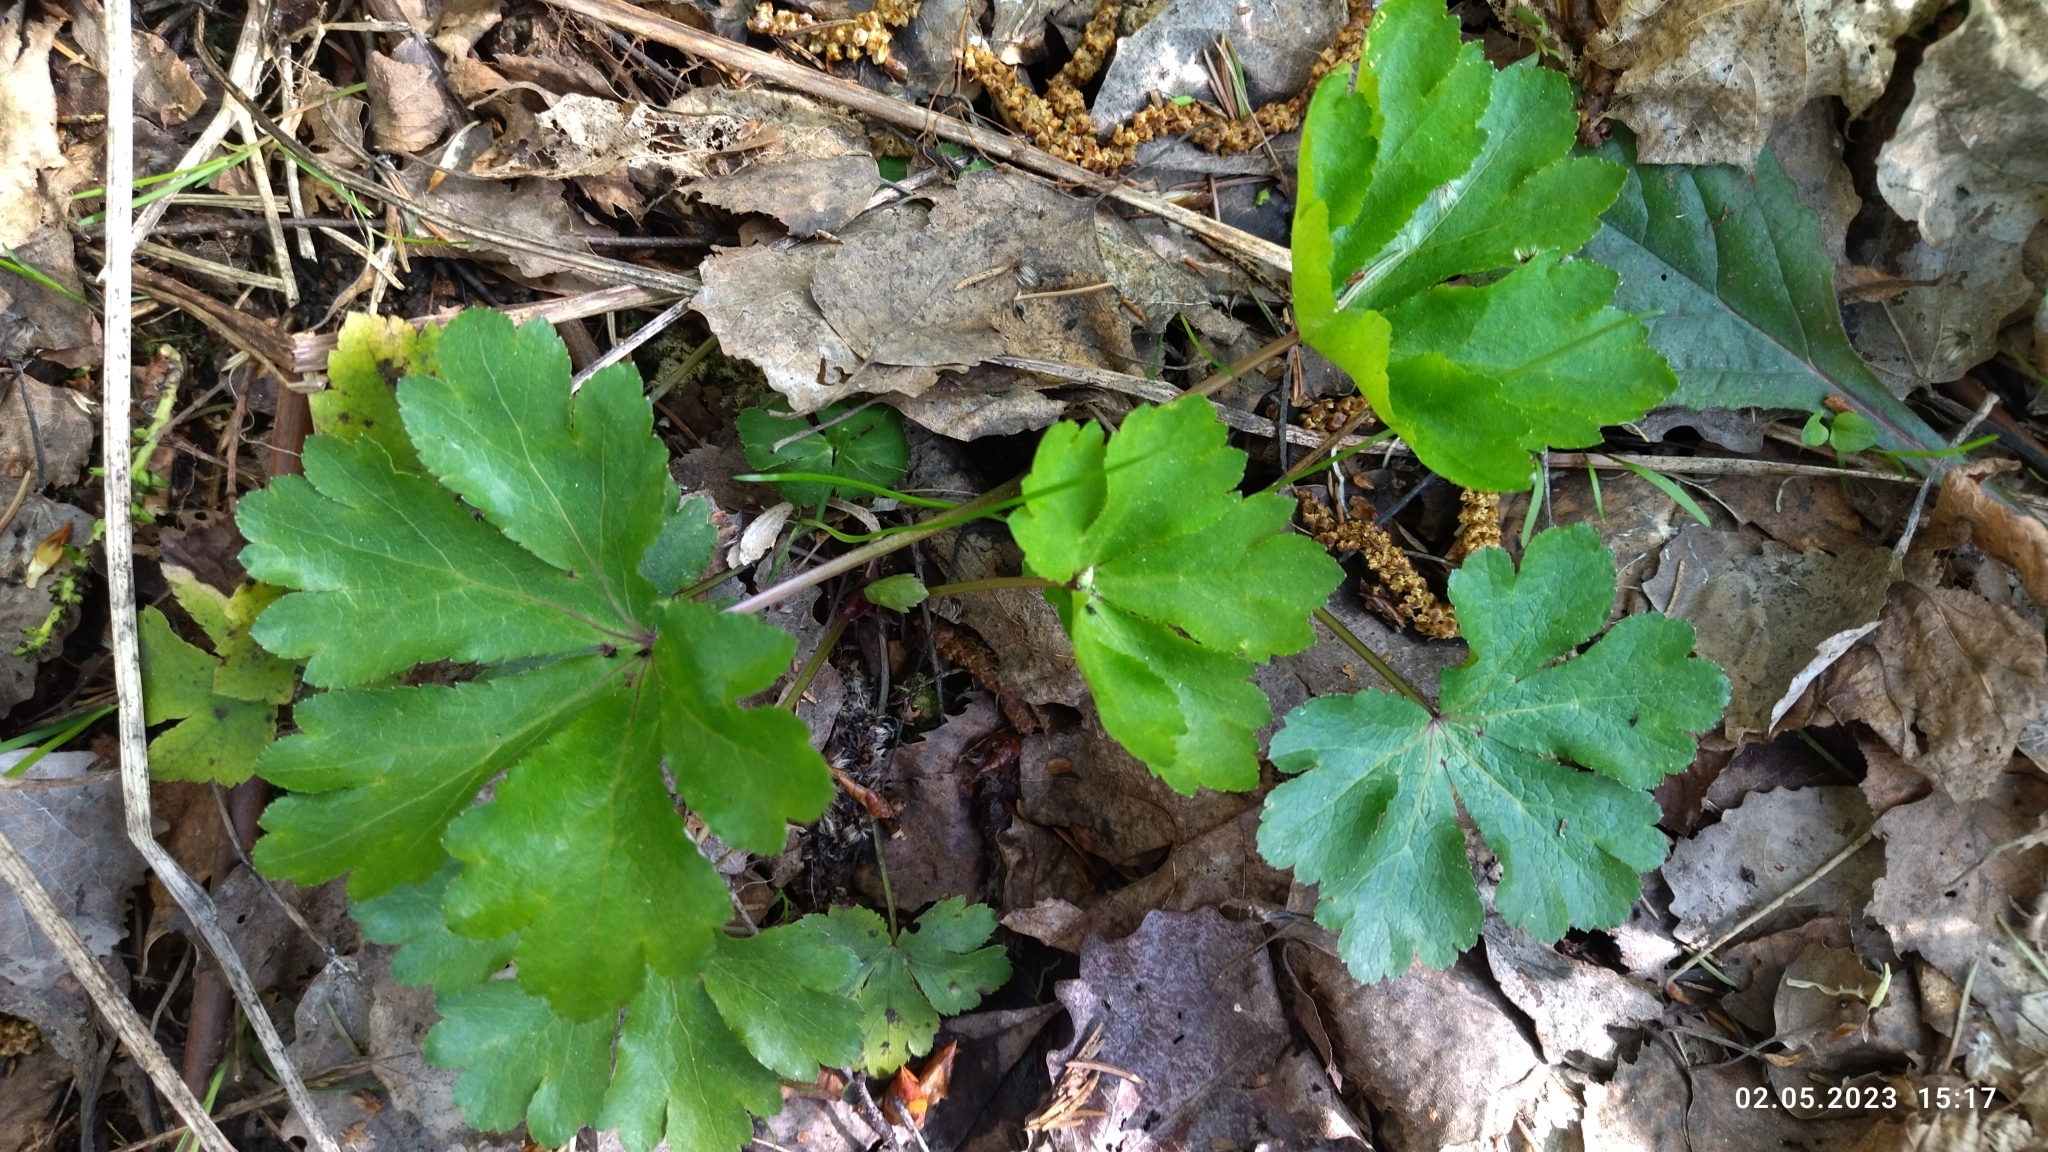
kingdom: Plantae
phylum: Tracheophyta
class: Magnoliopsida
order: Apiales
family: Apiaceae
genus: Sanicula
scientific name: Sanicula europaea
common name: Sanicle
